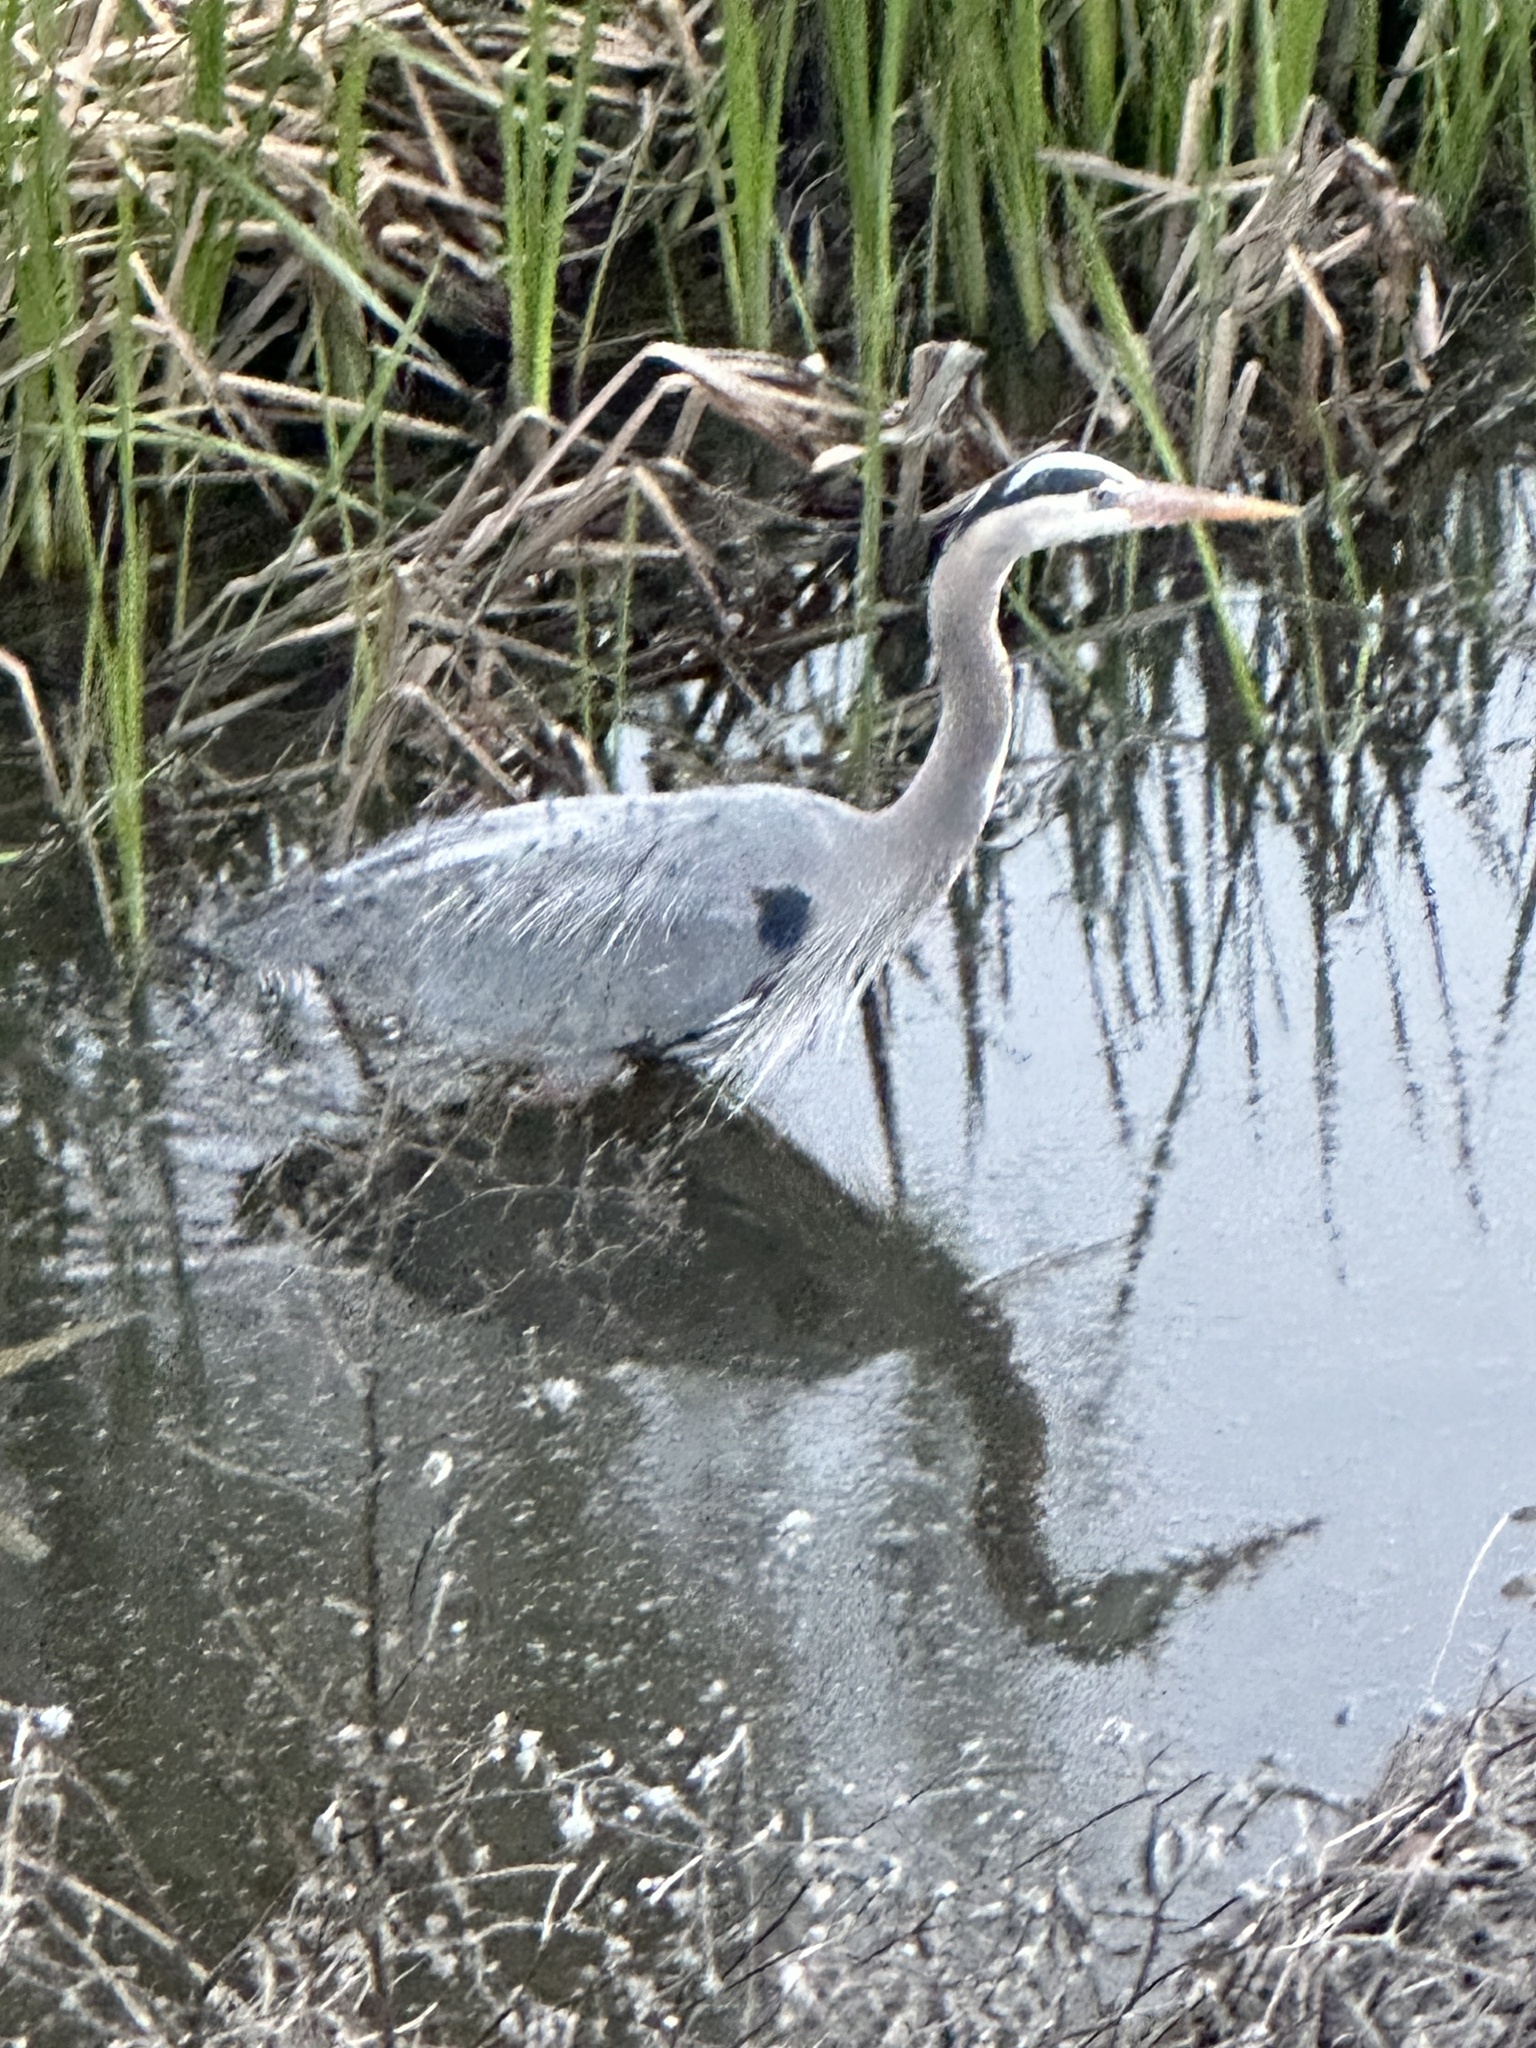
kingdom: Animalia
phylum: Chordata
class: Aves
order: Pelecaniformes
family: Ardeidae
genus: Ardea
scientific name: Ardea herodias
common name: Great blue heron
